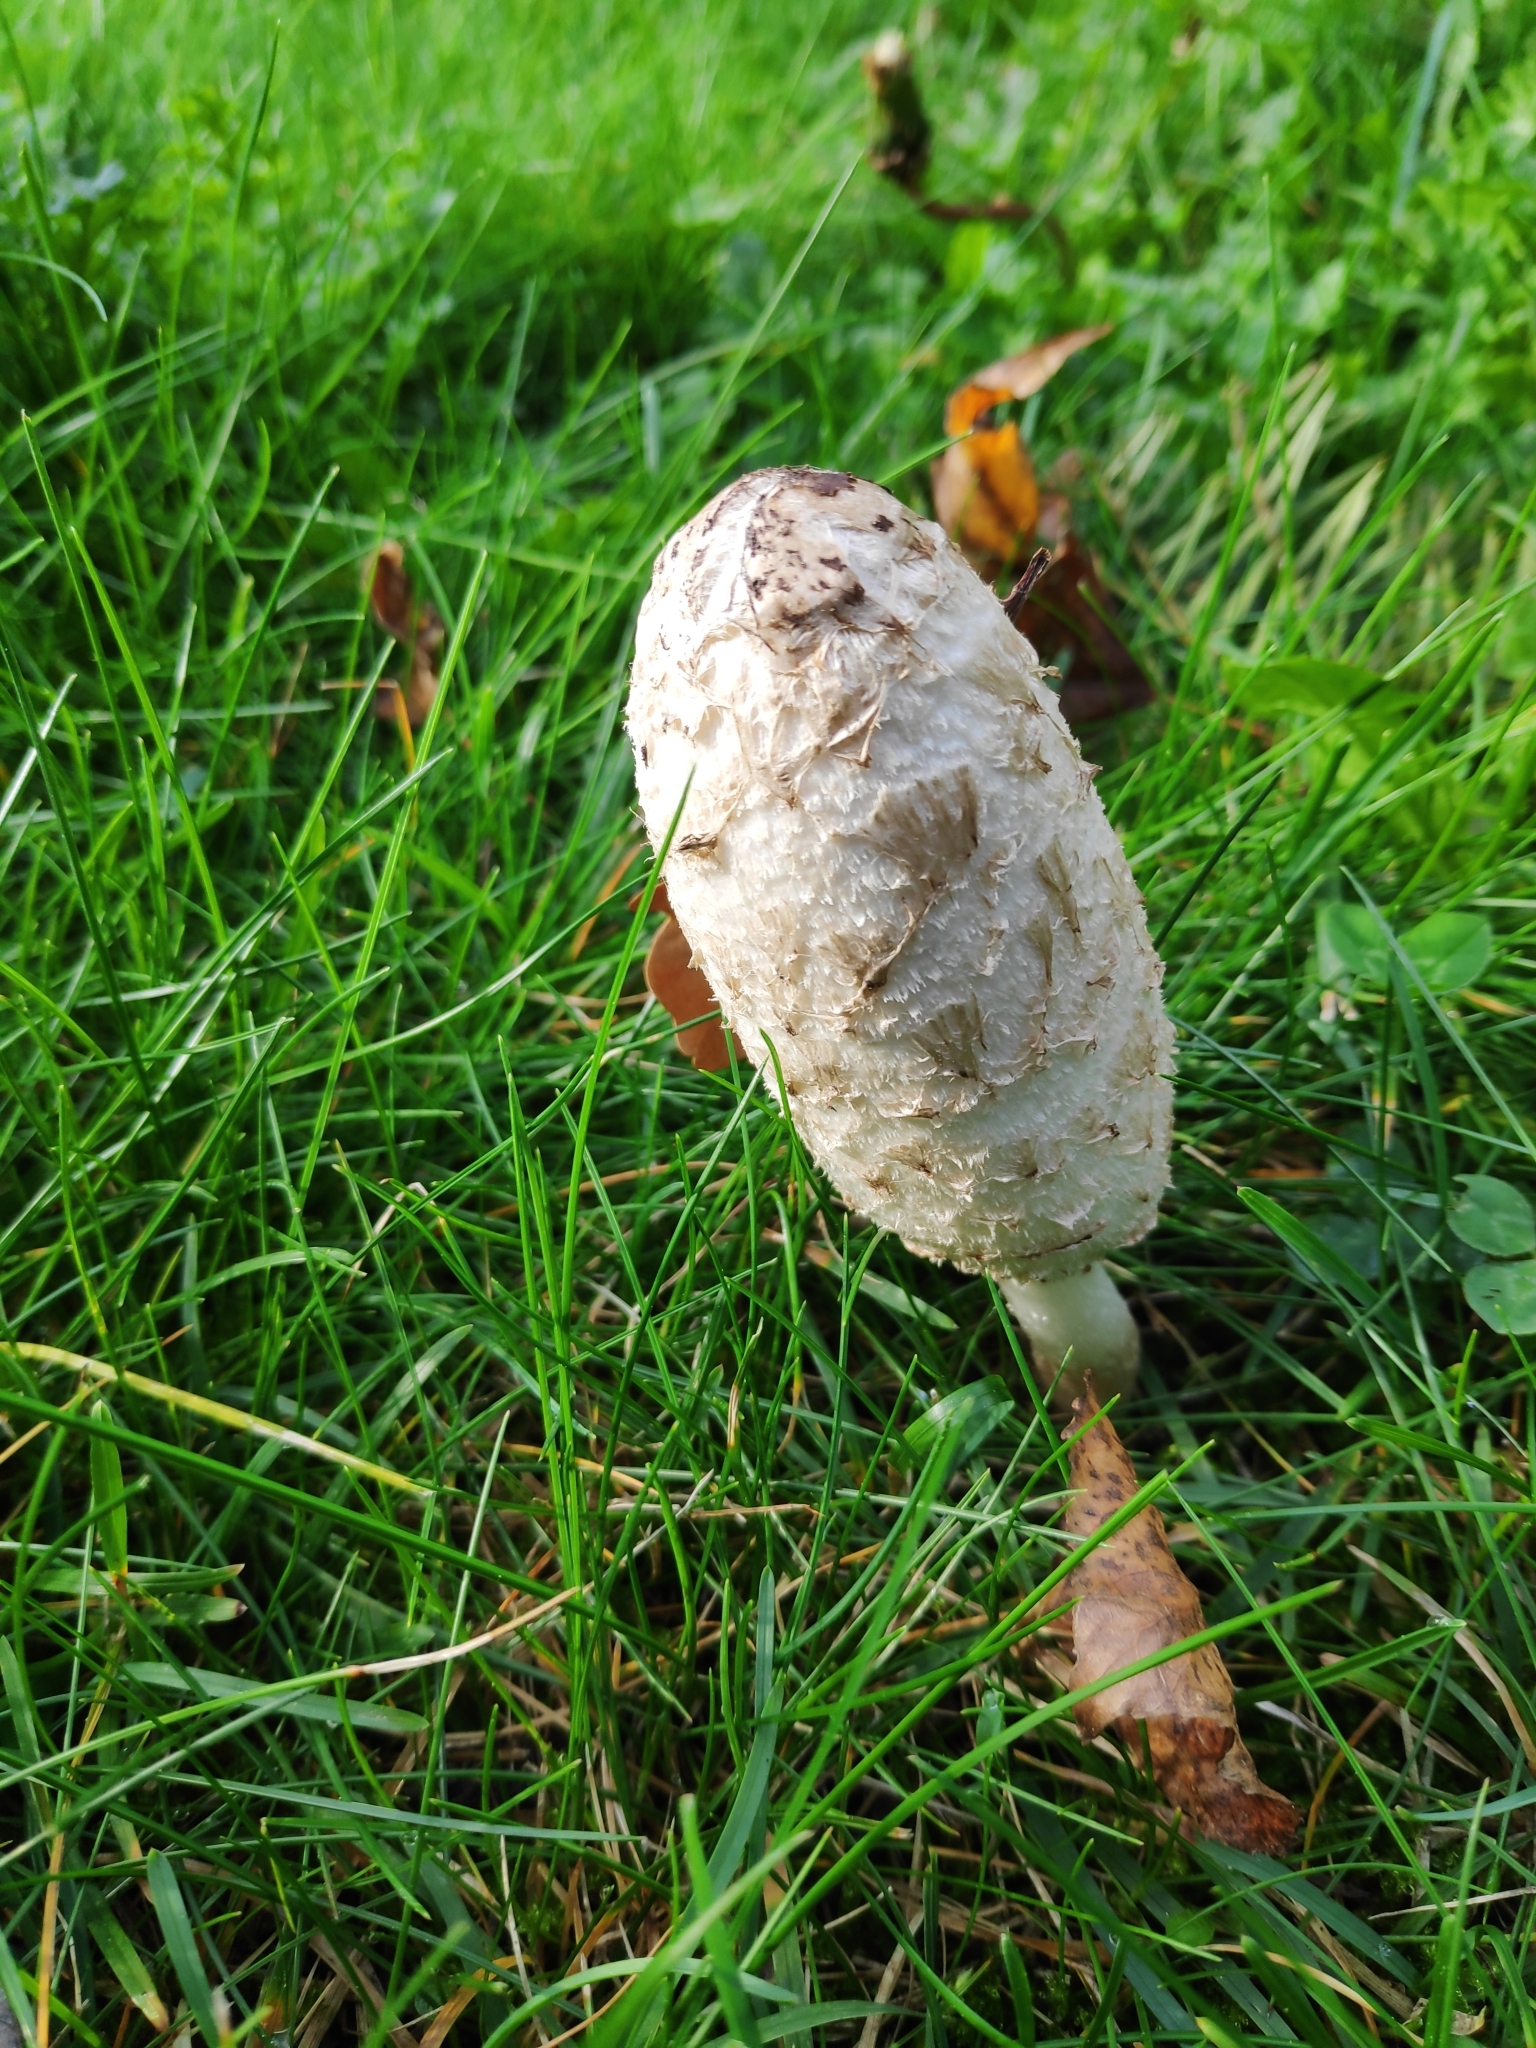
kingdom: Fungi
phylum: Basidiomycota
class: Agaricomycetes
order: Agaricales
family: Agaricaceae
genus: Coprinus
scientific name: Coprinus comatus
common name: Lawyer's wig
